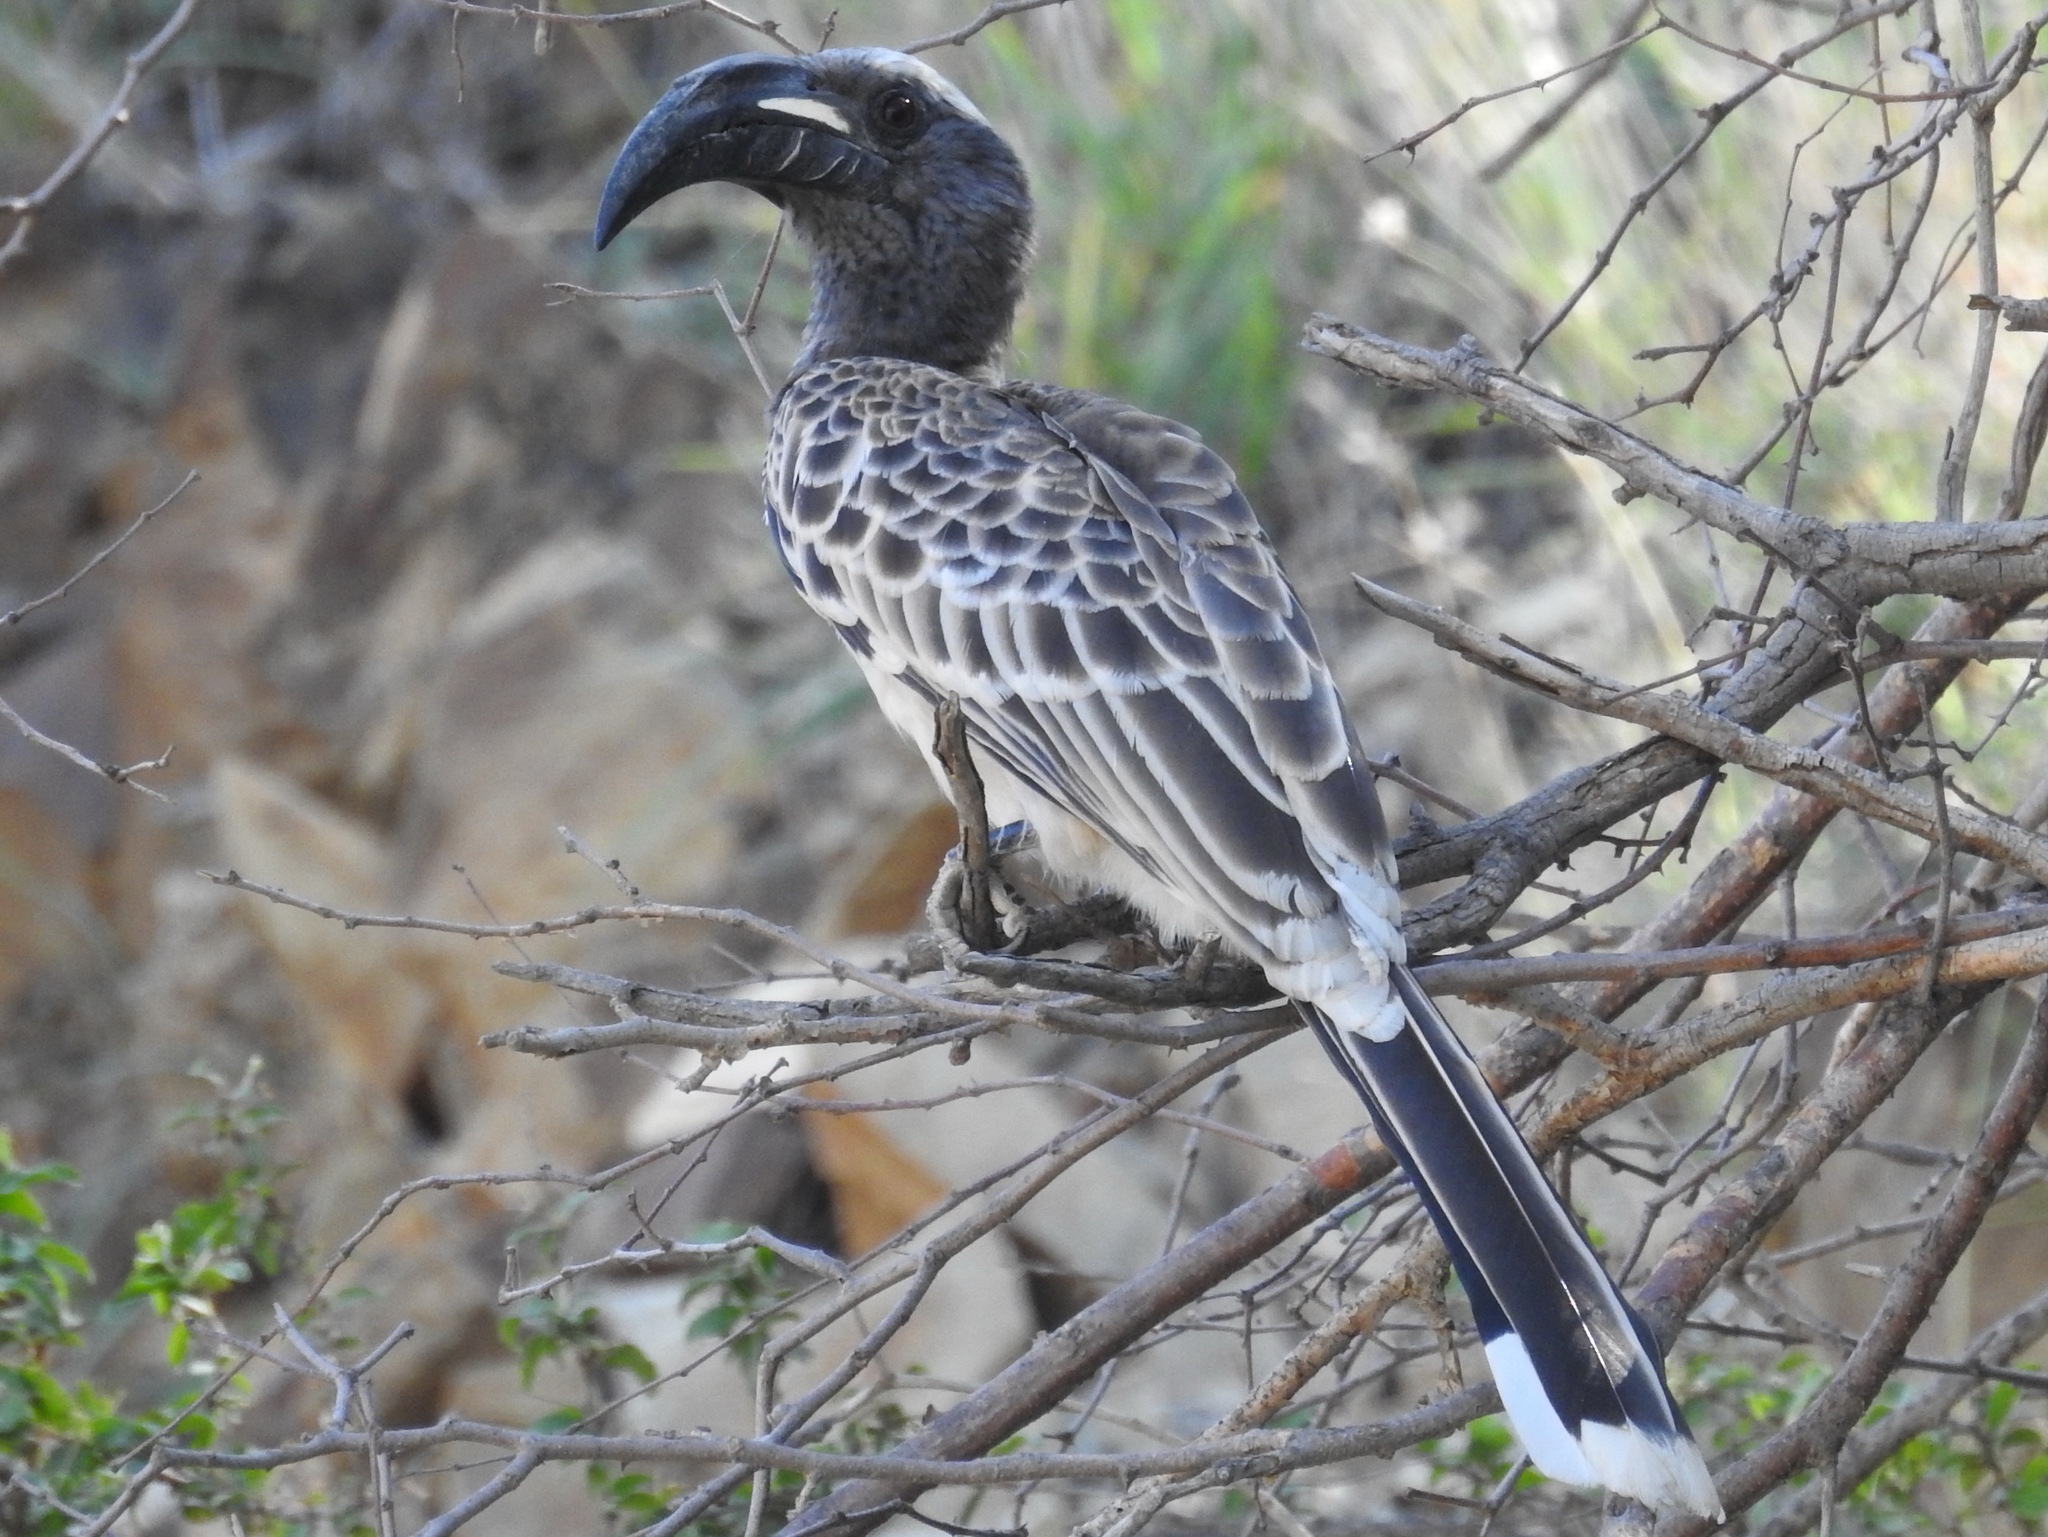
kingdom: Animalia
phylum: Chordata
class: Aves
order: Bucerotiformes
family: Bucerotidae
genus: Lophoceros
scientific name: Lophoceros nasutus
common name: African grey hornbill
